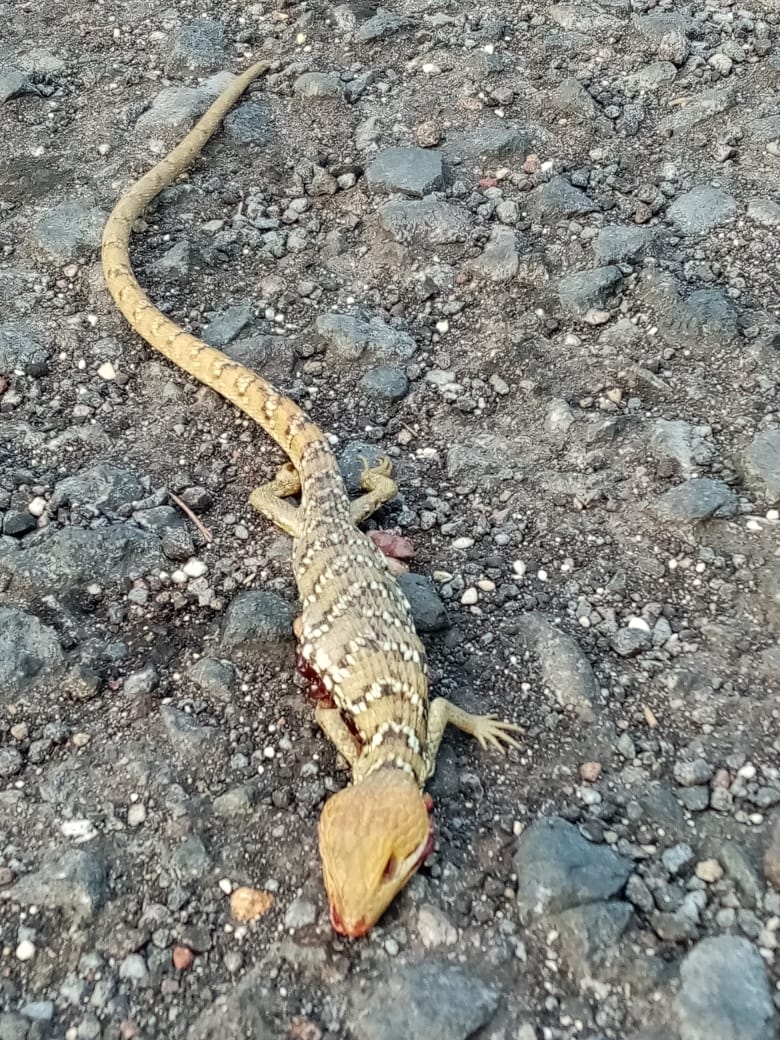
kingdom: Animalia
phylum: Chordata
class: Squamata
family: Anguidae
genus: Gerrhonotus
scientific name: Gerrhonotus ophiurus
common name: Snake lizard
